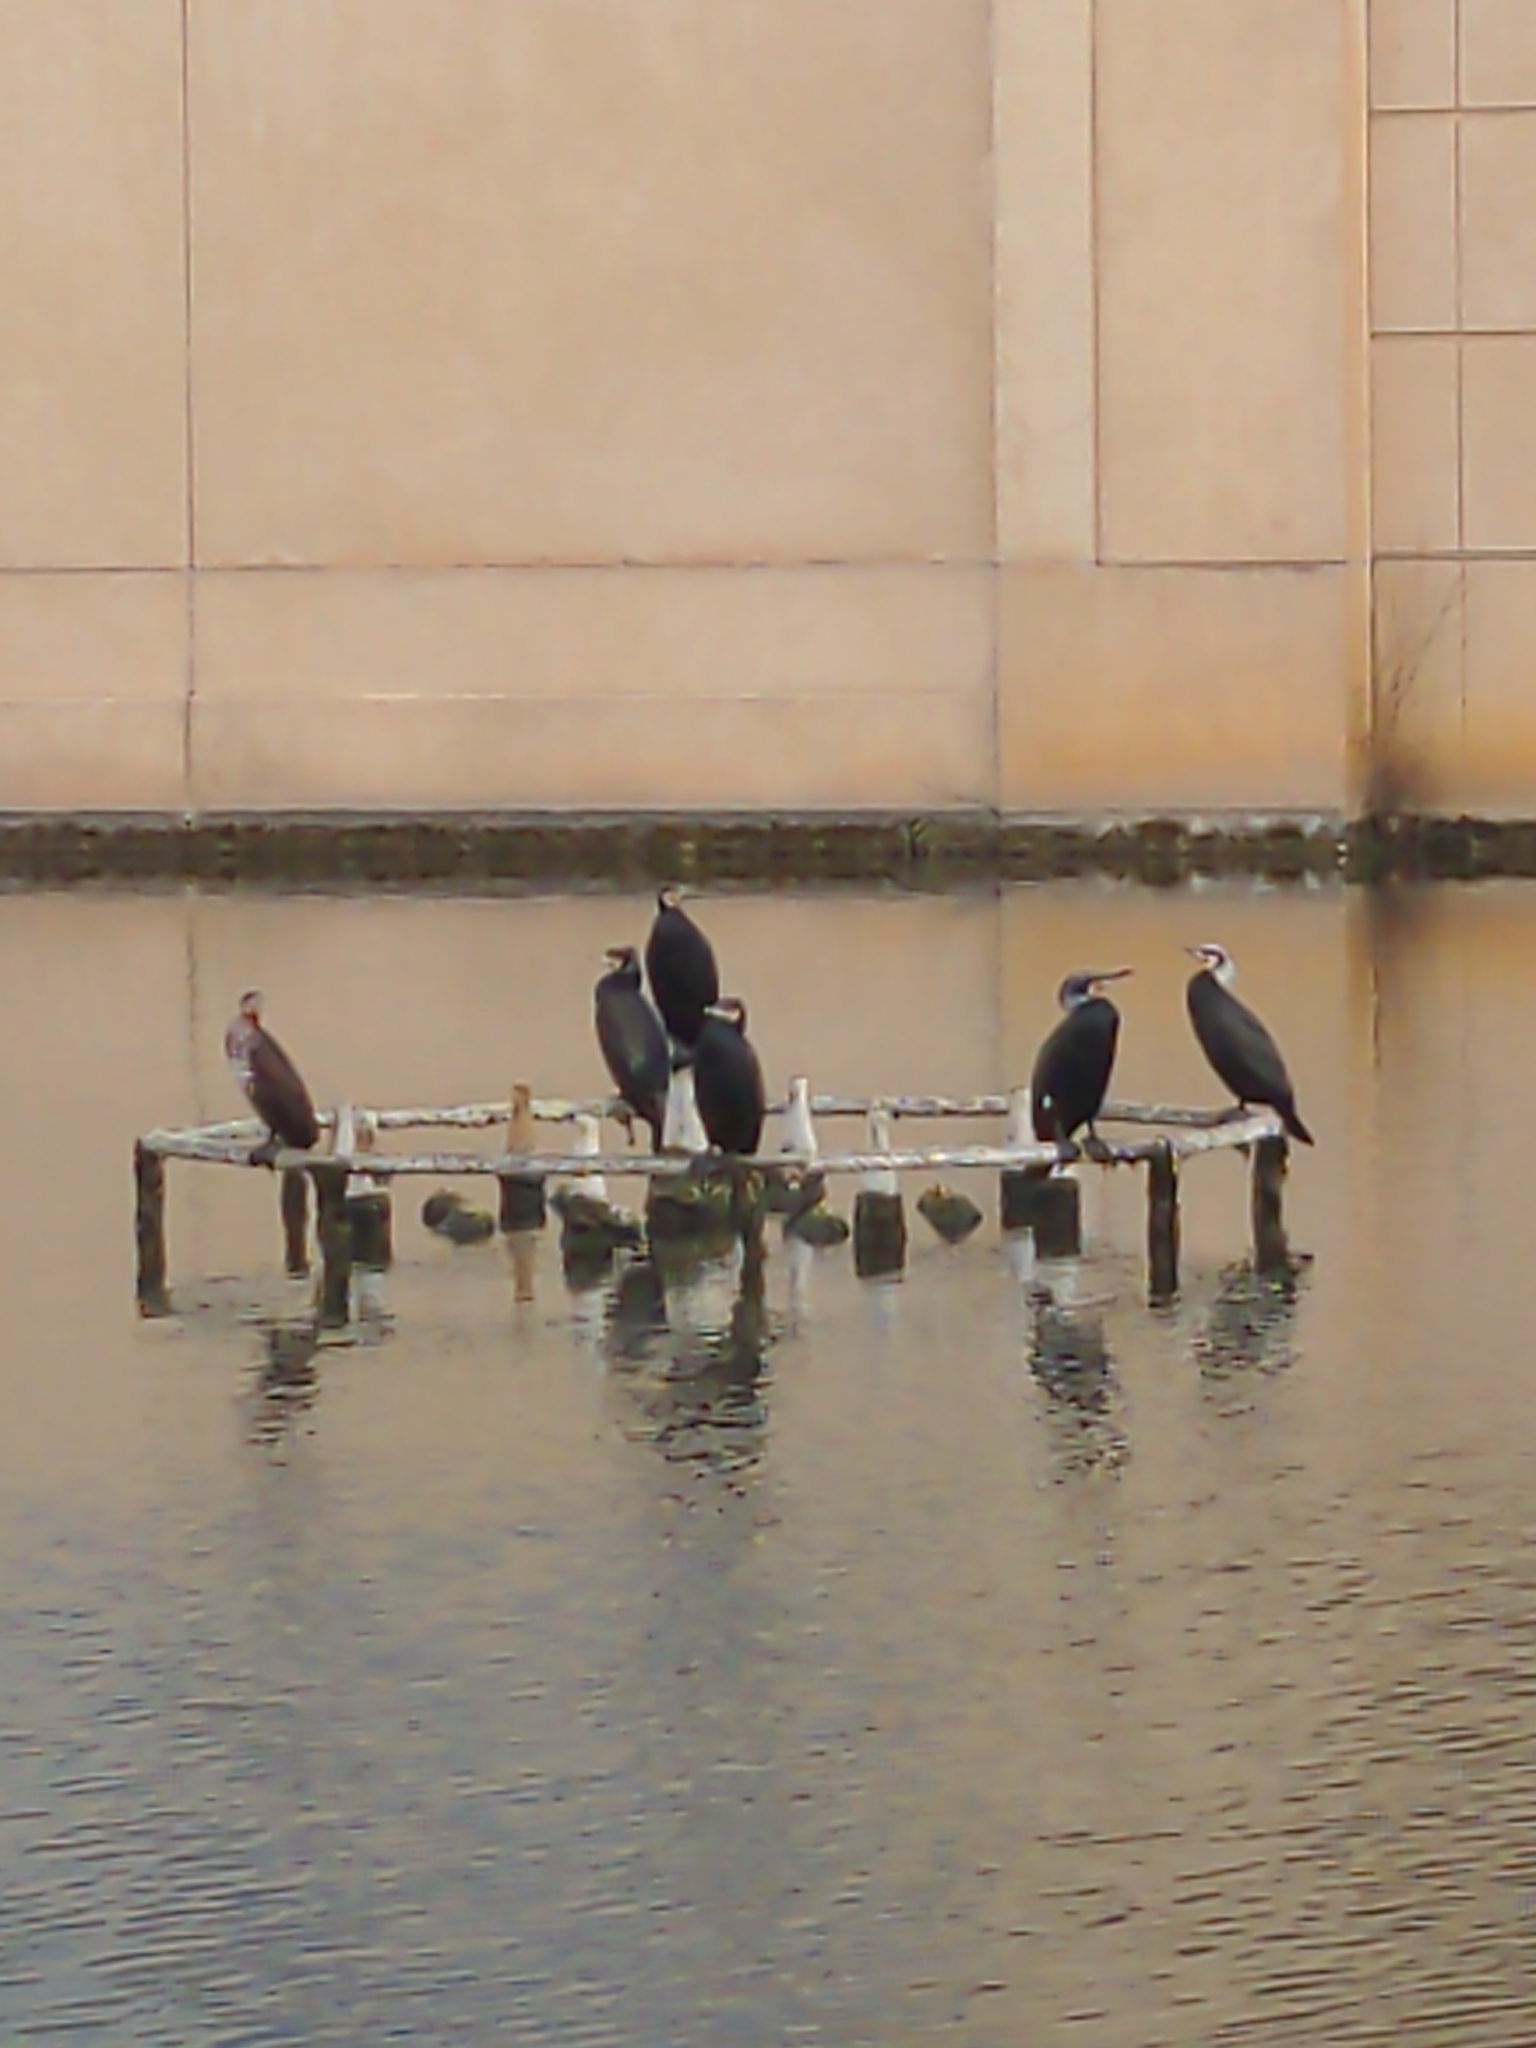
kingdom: Animalia
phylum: Chordata
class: Aves
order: Suliformes
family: Phalacrocoracidae
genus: Phalacrocorax
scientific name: Phalacrocorax carbo
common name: Great cormorant
